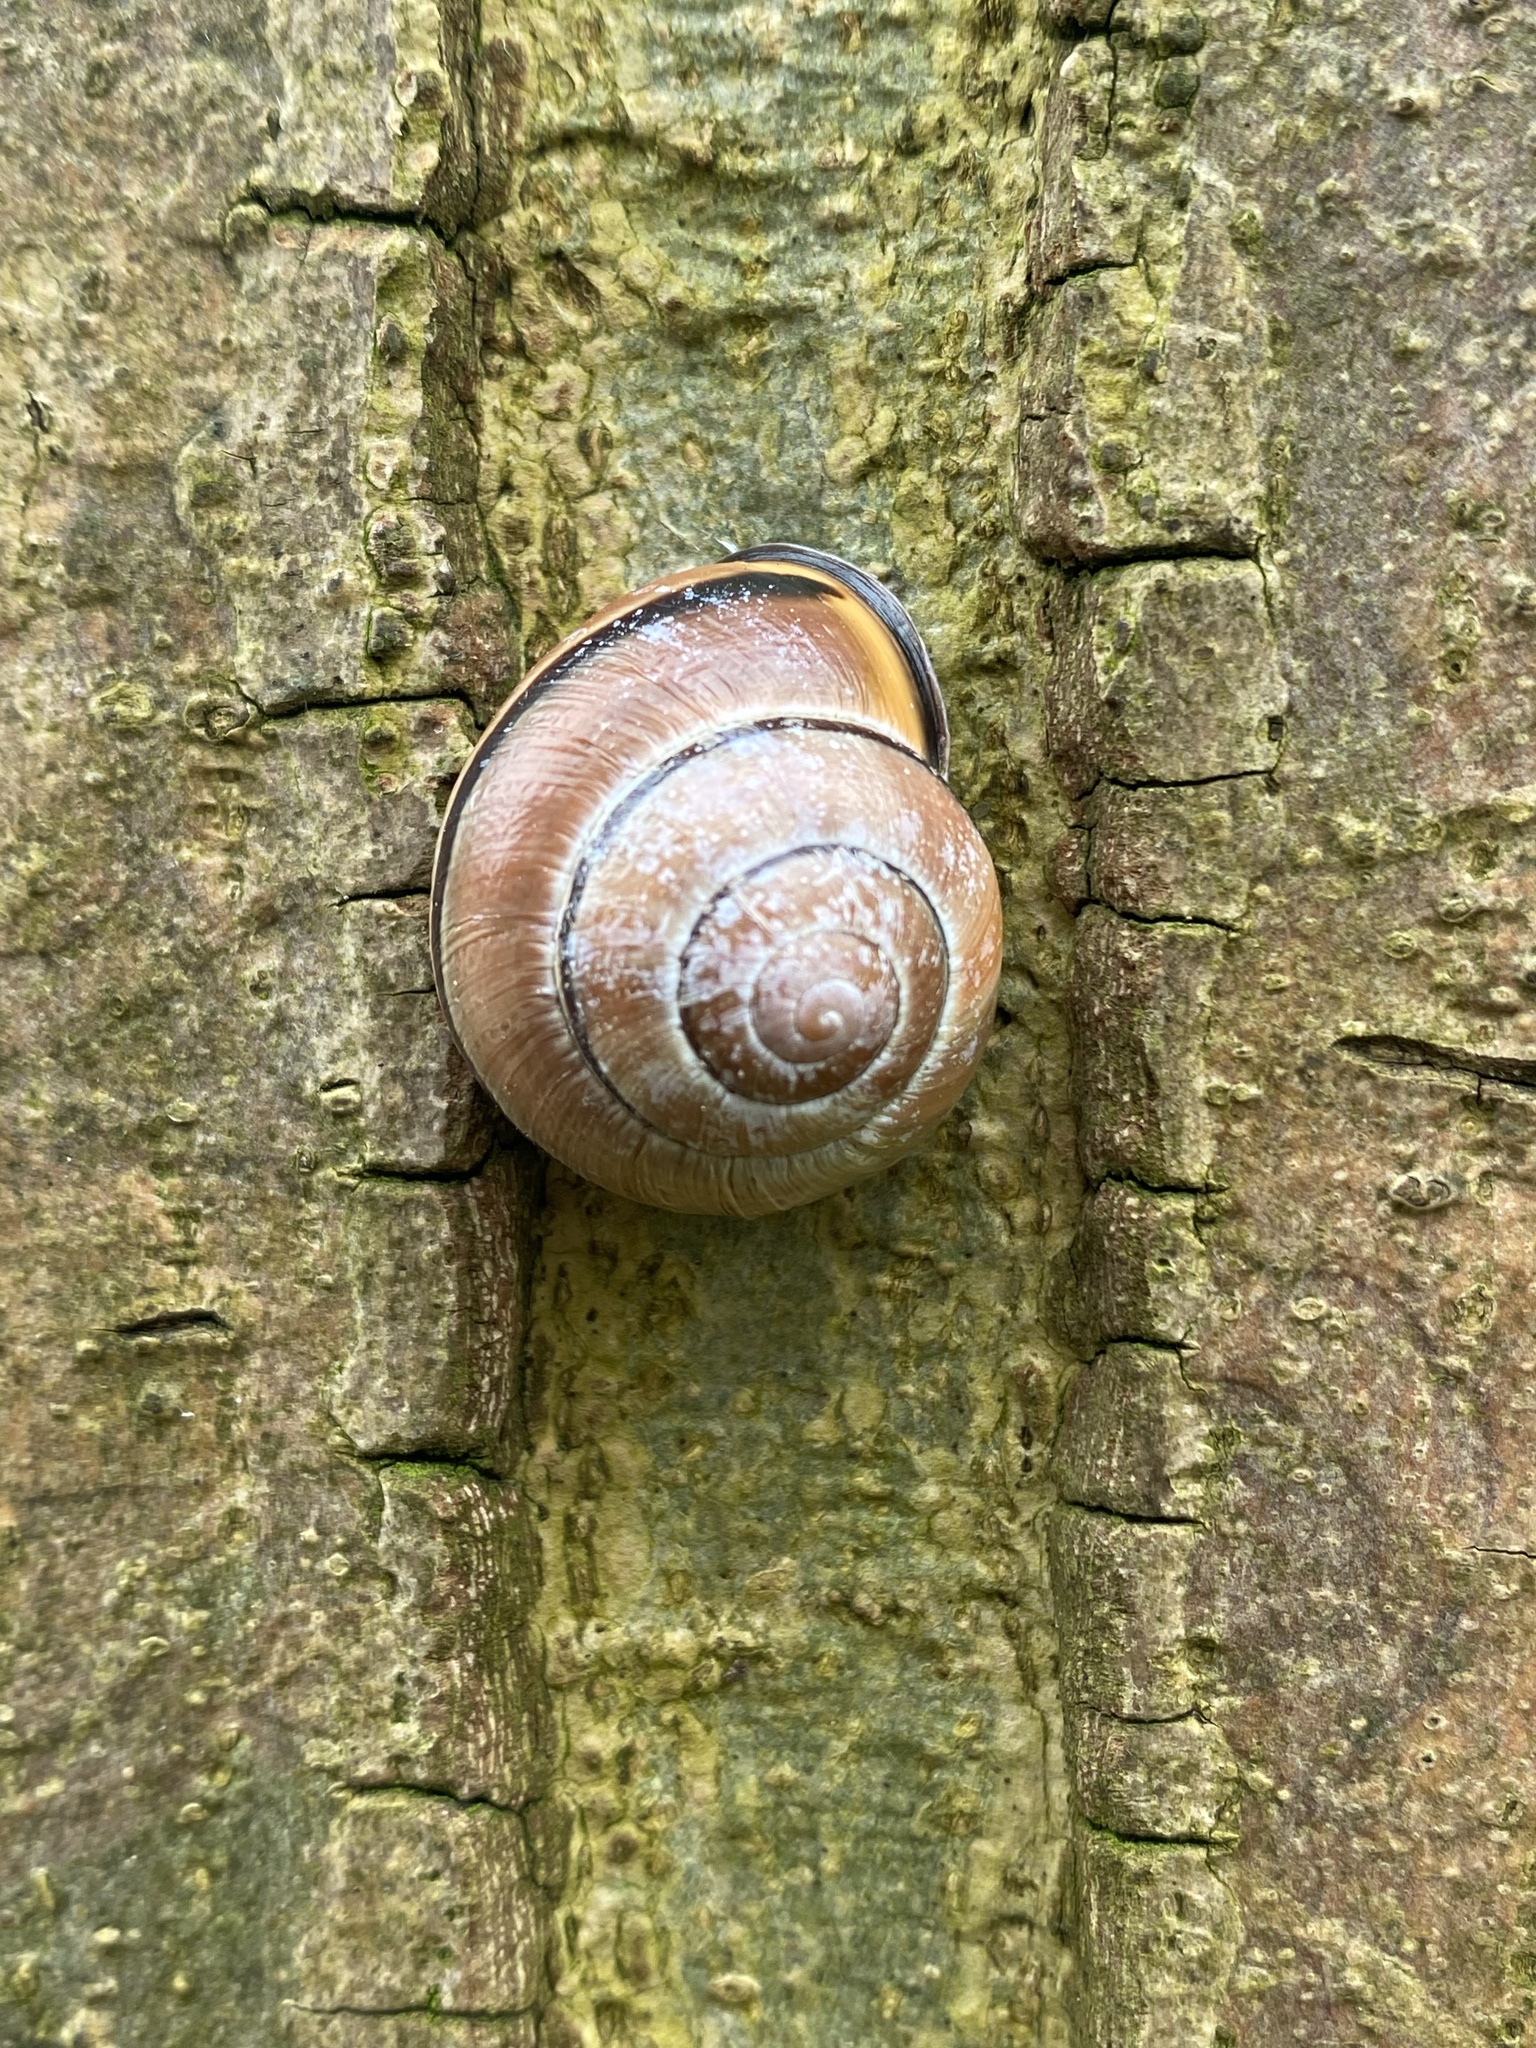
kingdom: Animalia
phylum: Mollusca
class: Gastropoda
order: Stylommatophora
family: Helicidae
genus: Cepaea
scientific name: Cepaea nemoralis
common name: Grovesnail
